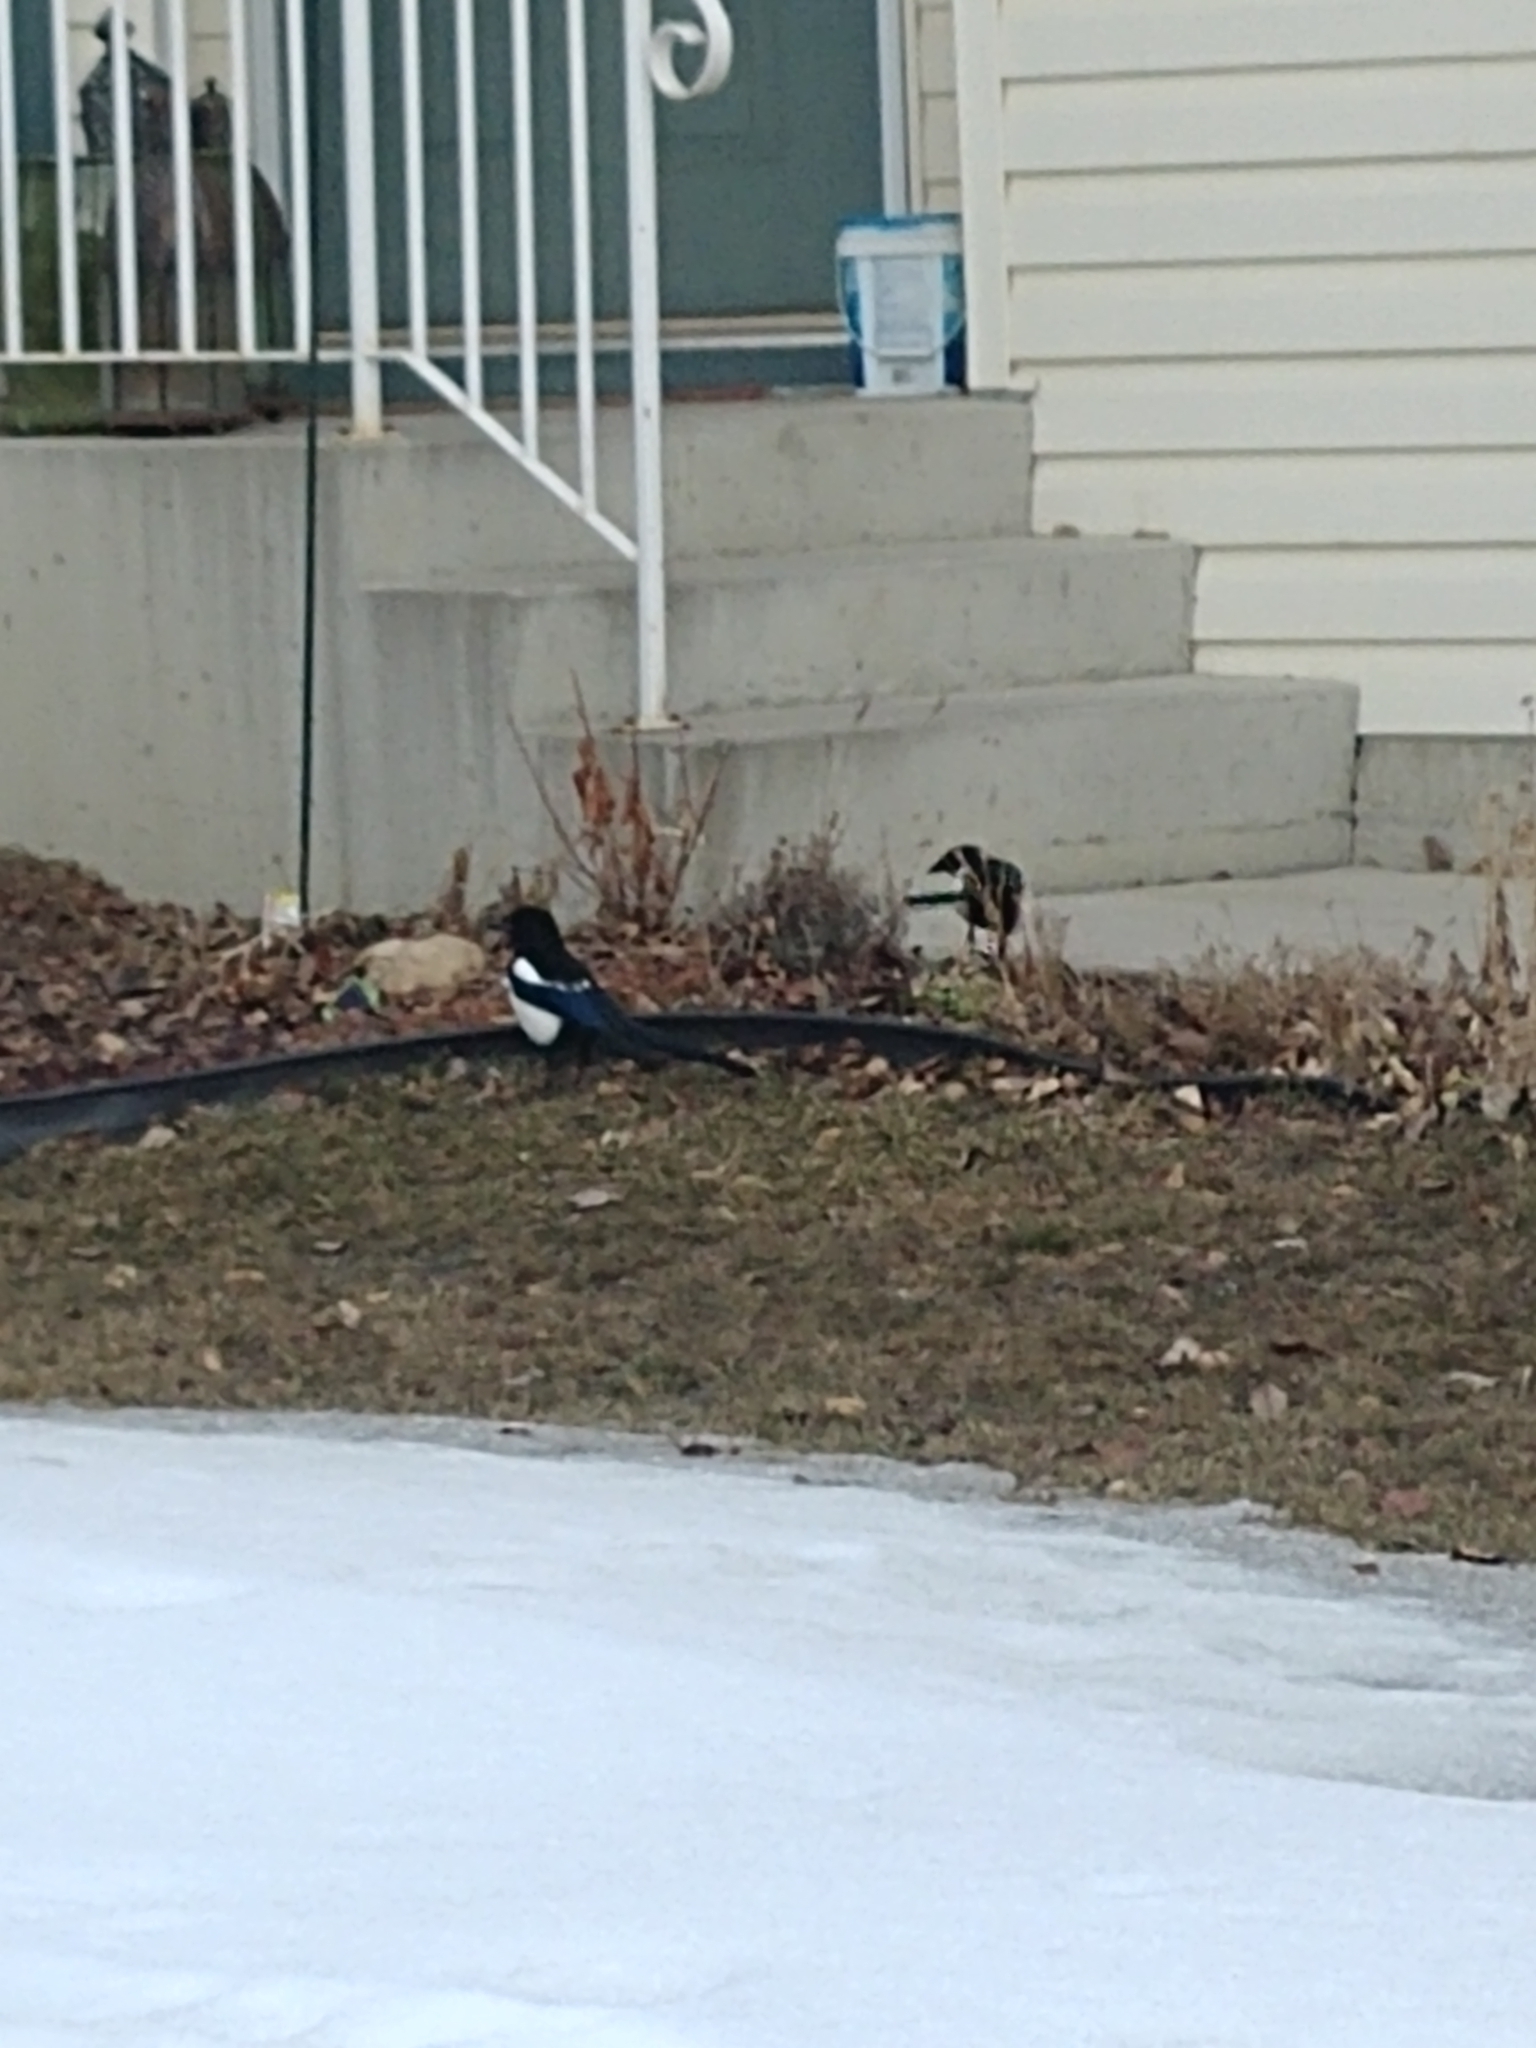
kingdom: Animalia
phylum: Chordata
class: Aves
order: Passeriformes
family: Corvidae
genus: Pica
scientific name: Pica hudsonia
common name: Black-billed magpie
